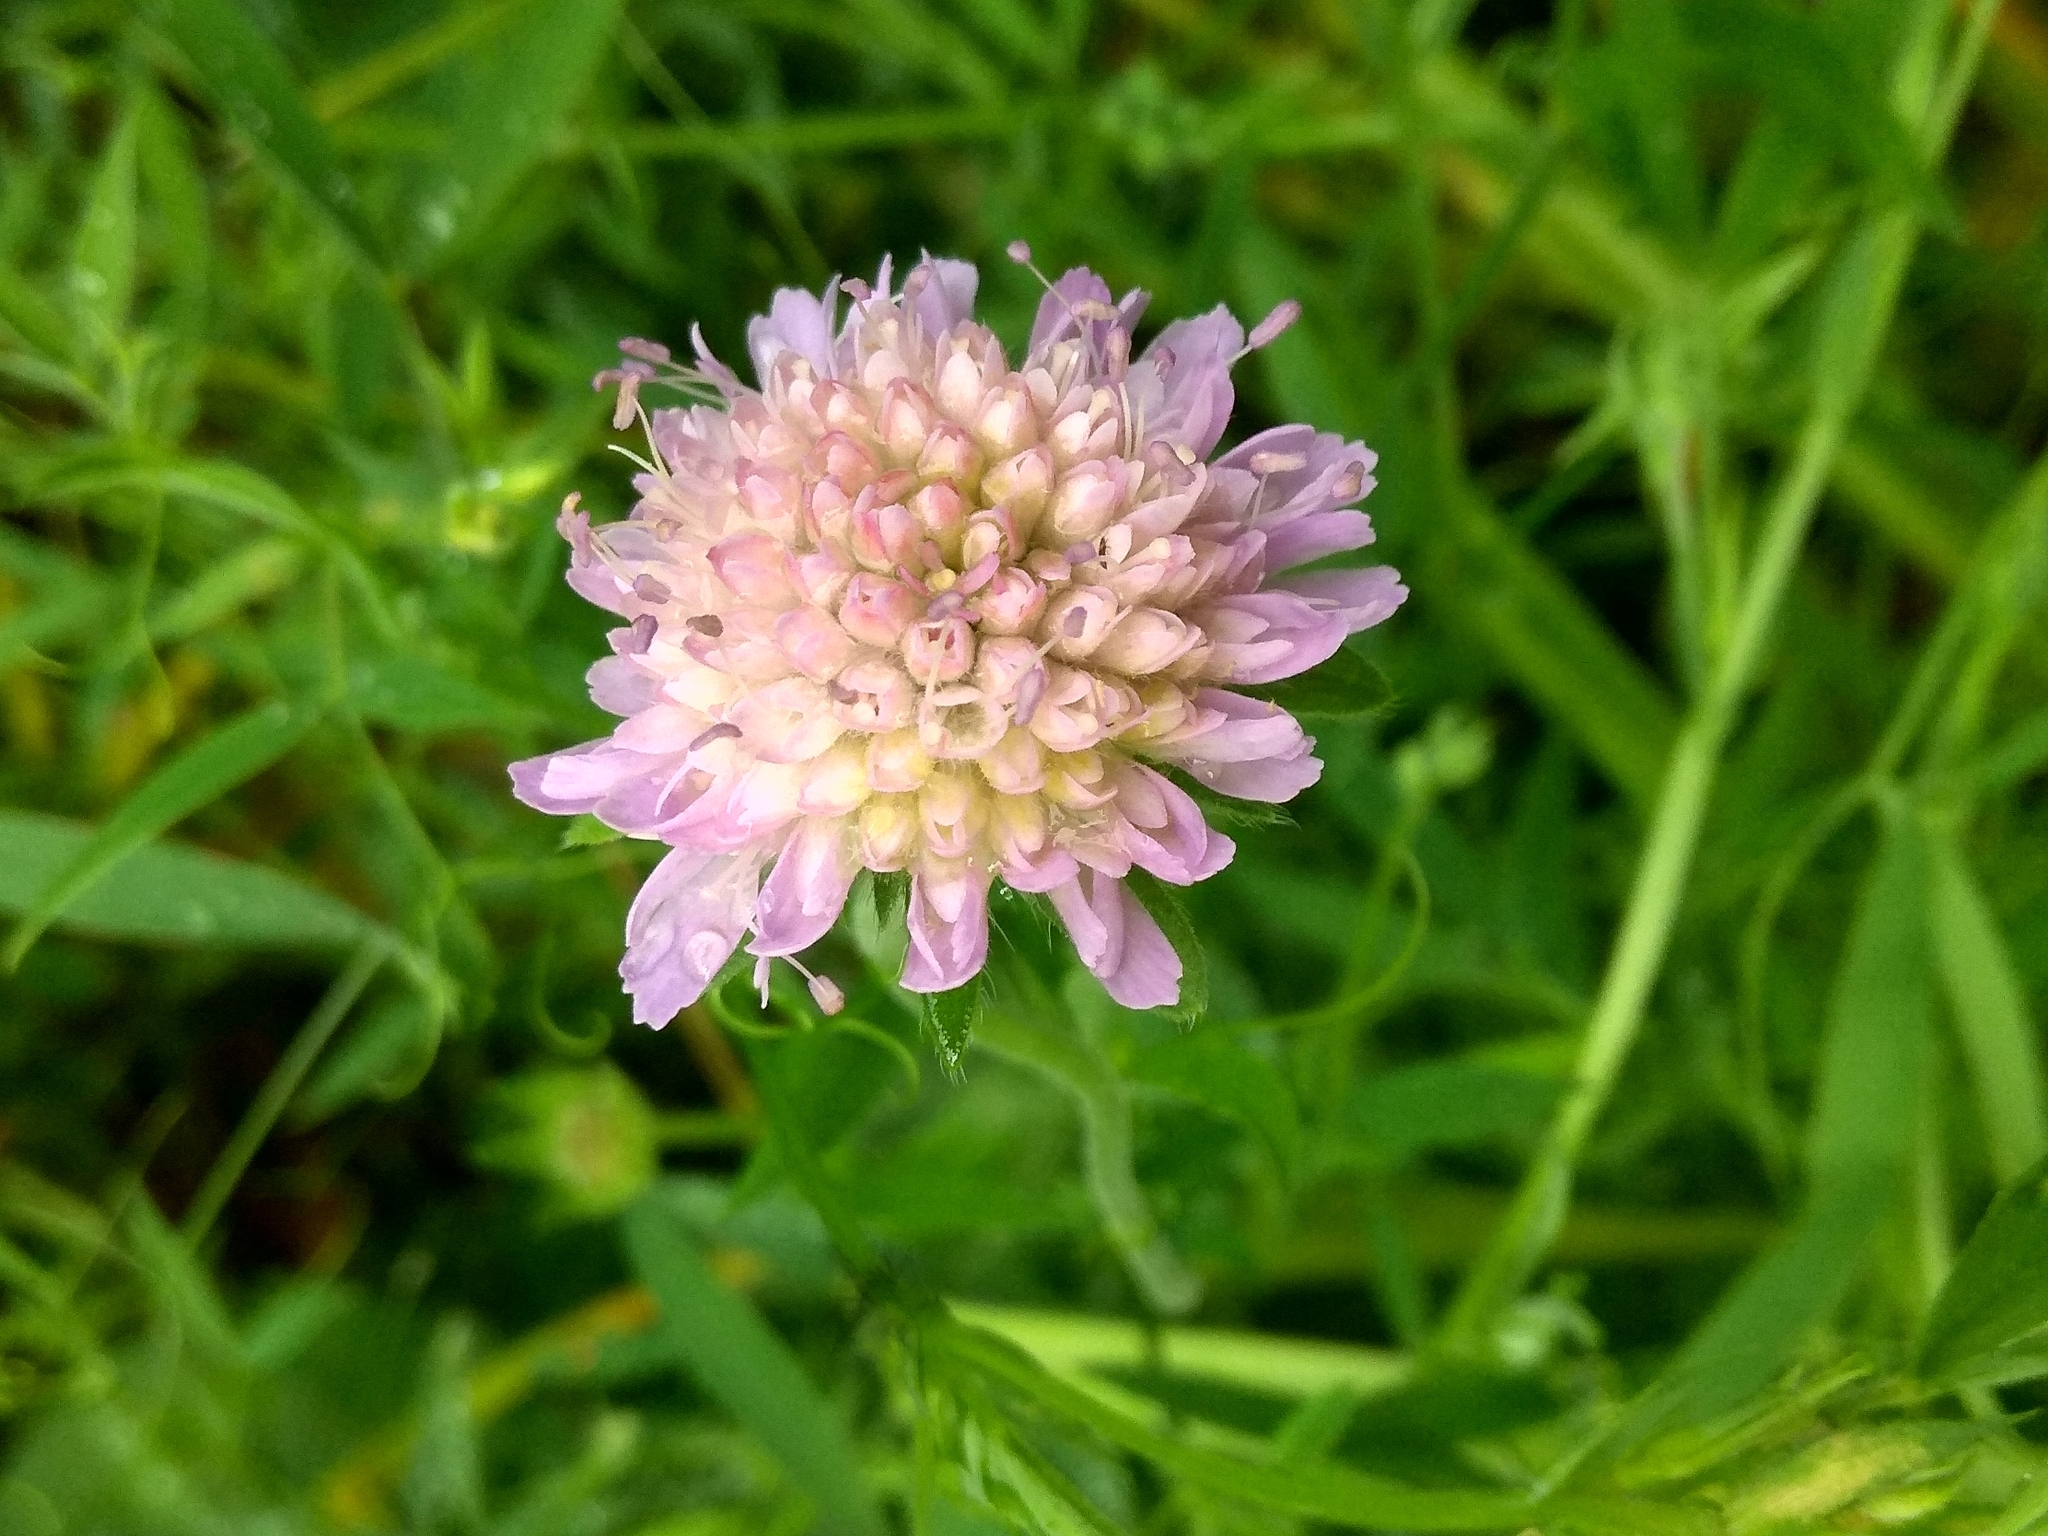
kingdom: Plantae
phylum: Tracheophyta
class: Magnoliopsida
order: Dipsacales
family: Caprifoliaceae
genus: Knautia
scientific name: Knautia arvensis
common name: Field scabiosa
